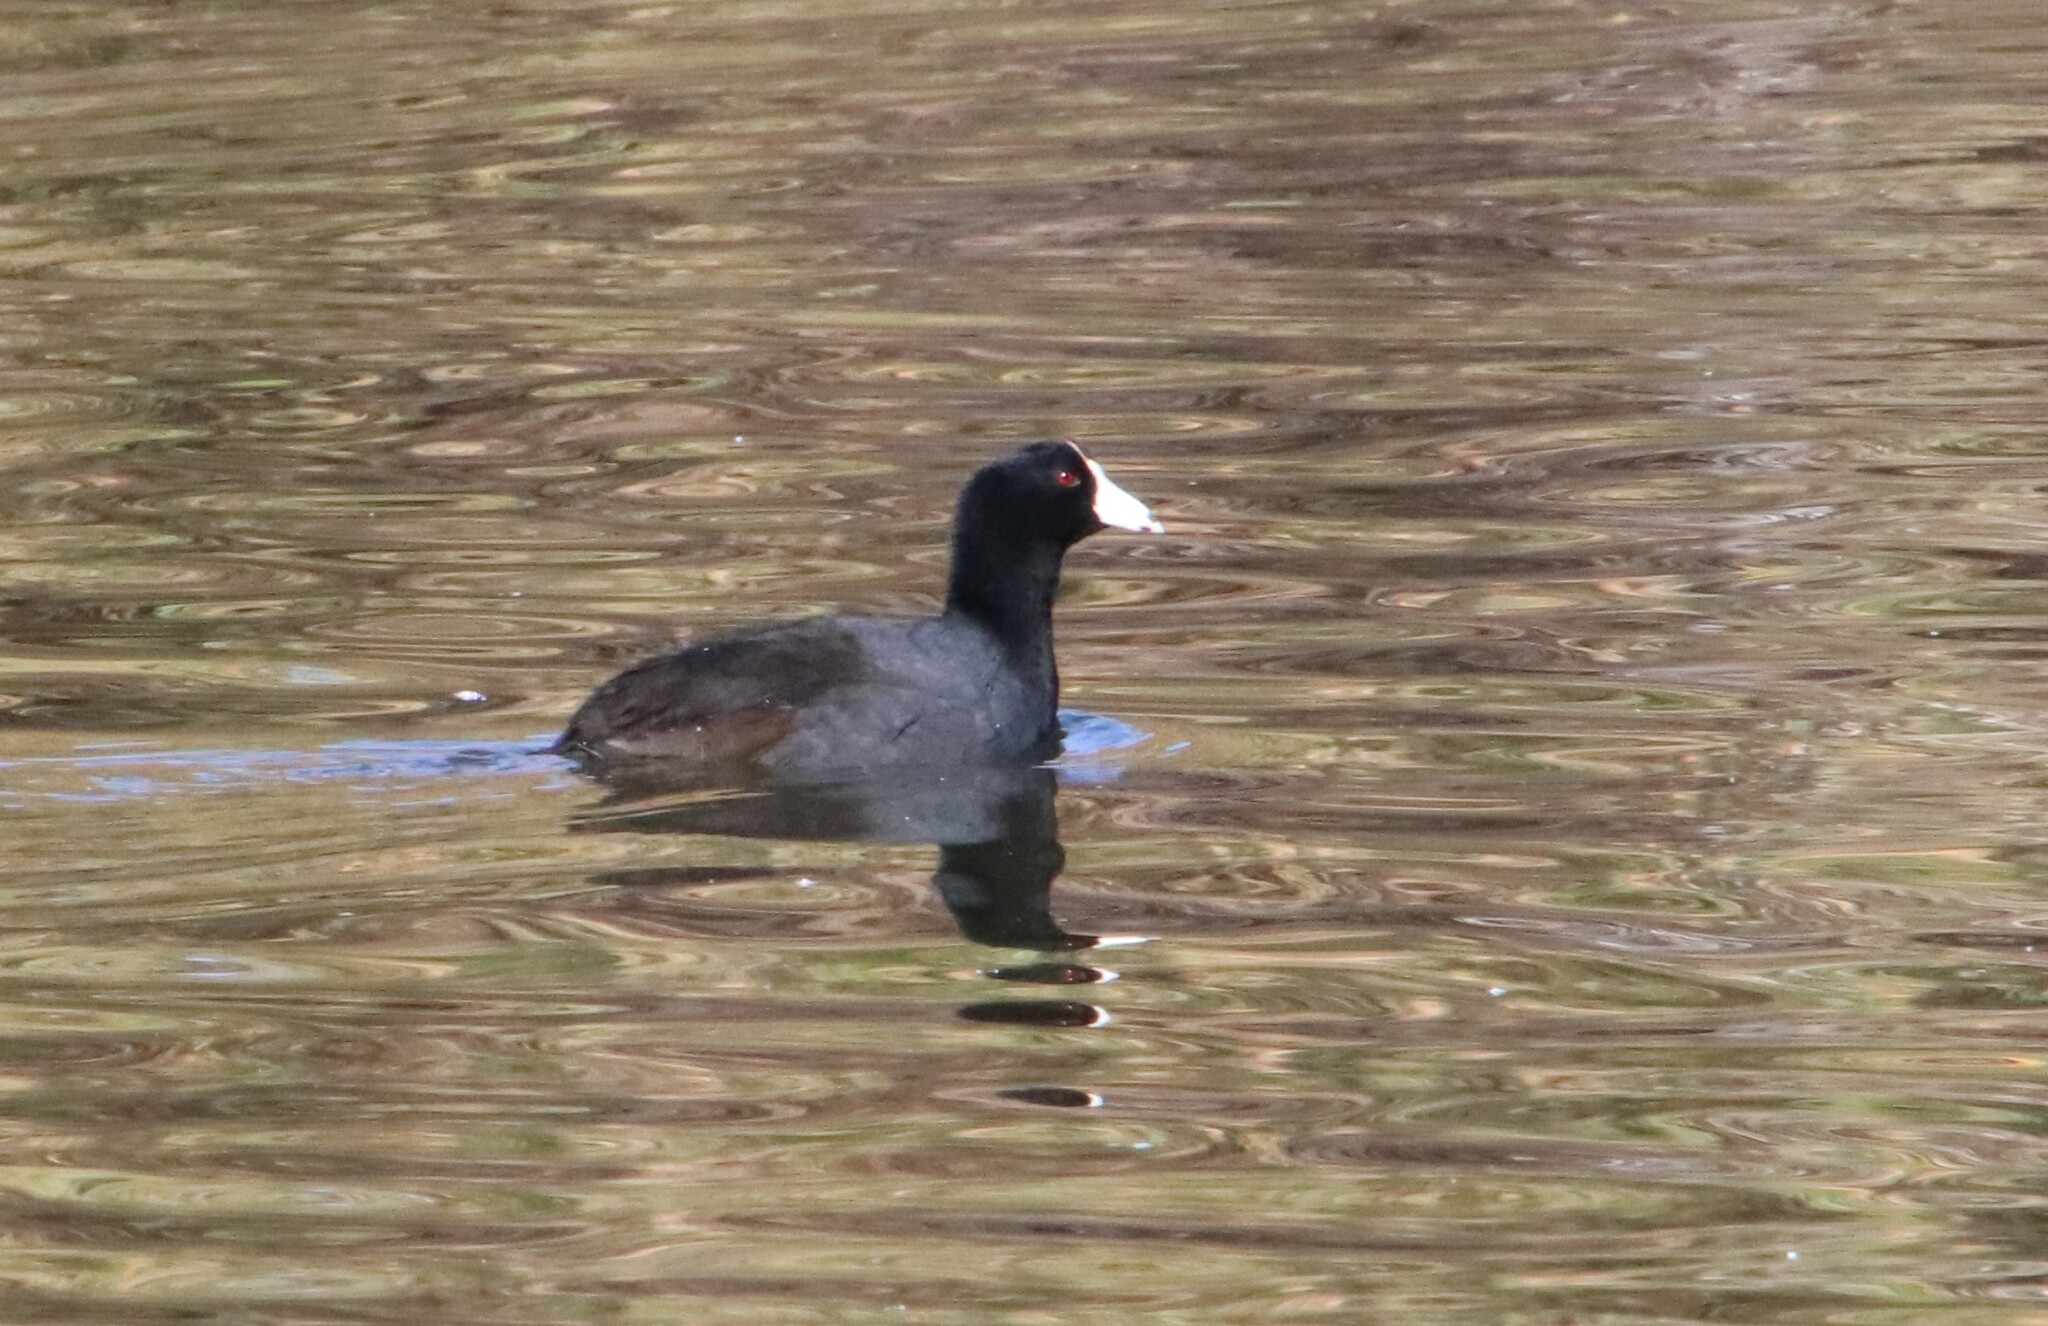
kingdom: Animalia
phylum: Chordata
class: Aves
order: Gruiformes
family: Rallidae
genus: Fulica
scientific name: Fulica americana
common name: American coot
